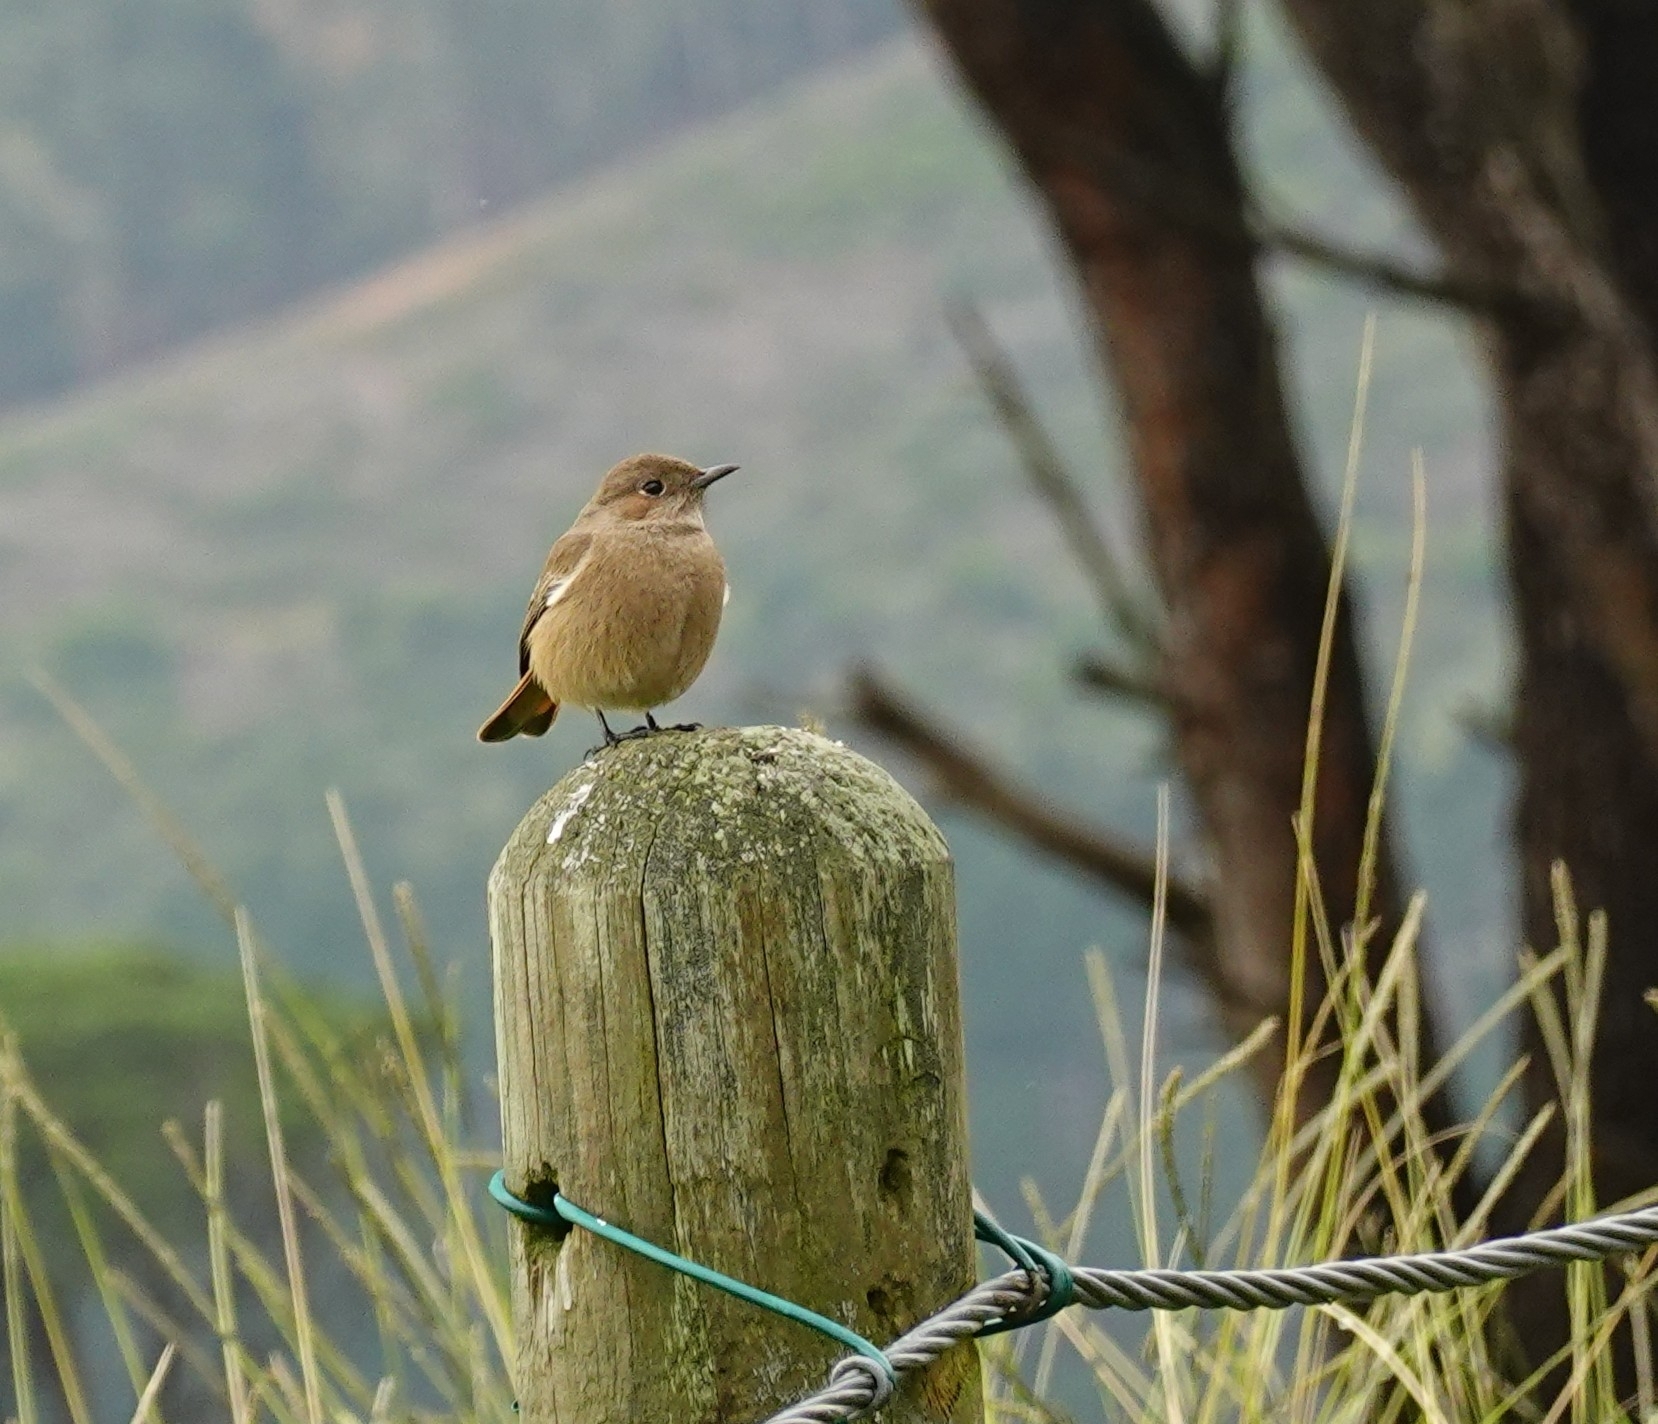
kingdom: Animalia
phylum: Chordata
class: Aves
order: Passeriformes
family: Muscicapidae
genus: Oenanthe
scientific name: Oenanthe familiaris
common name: Familiar chat
